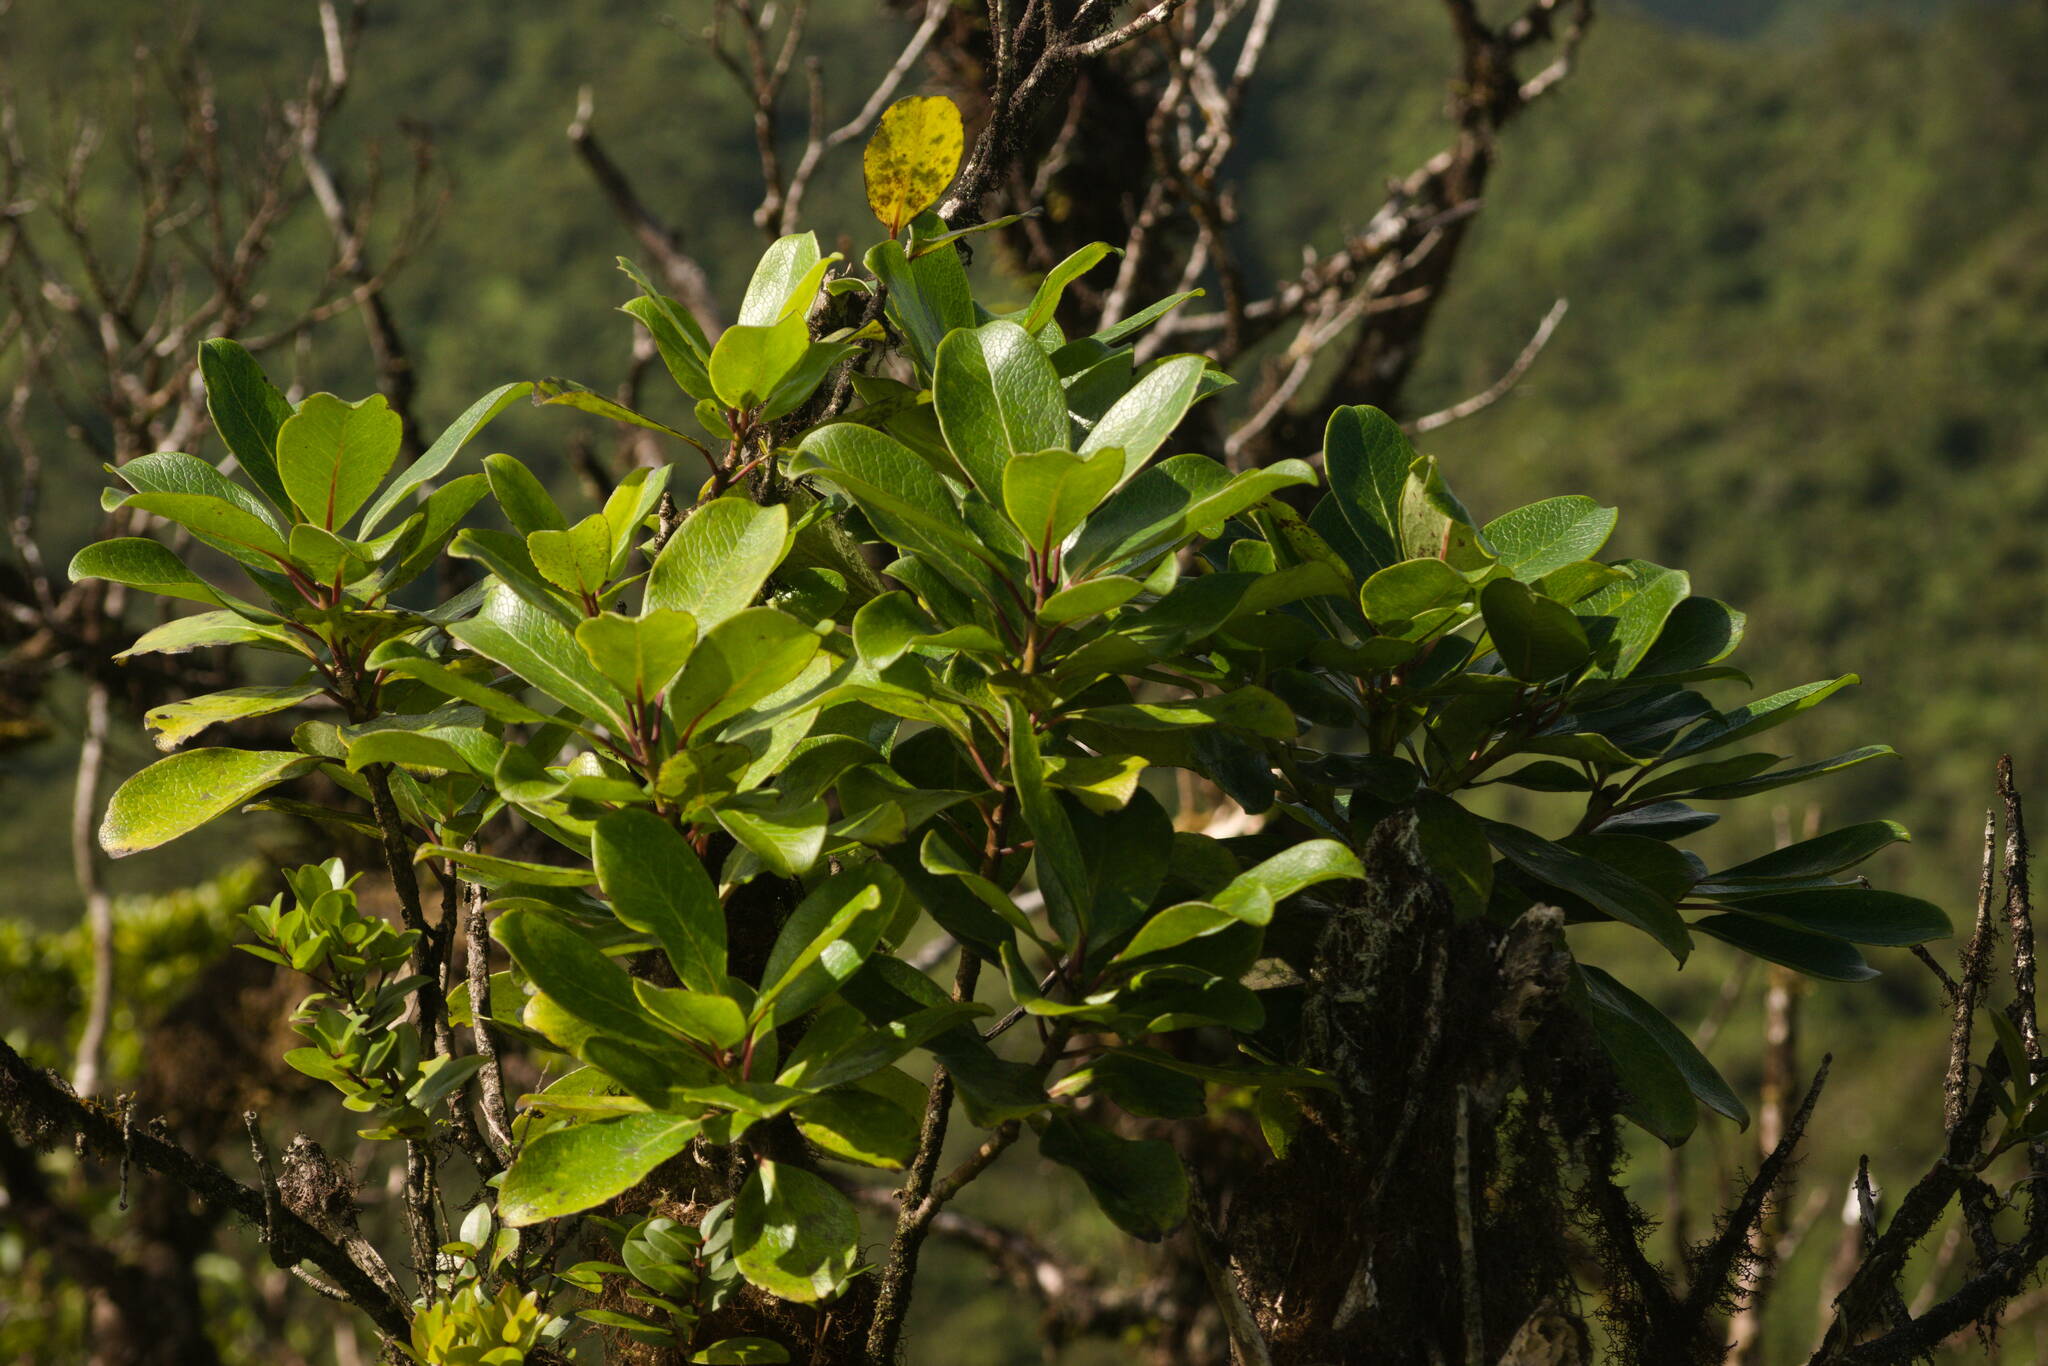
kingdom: Plantae
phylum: Tracheophyta
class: Magnoliopsida
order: Aquifoliales
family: Aquifoliaceae
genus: Ilex
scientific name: Ilex anomala
